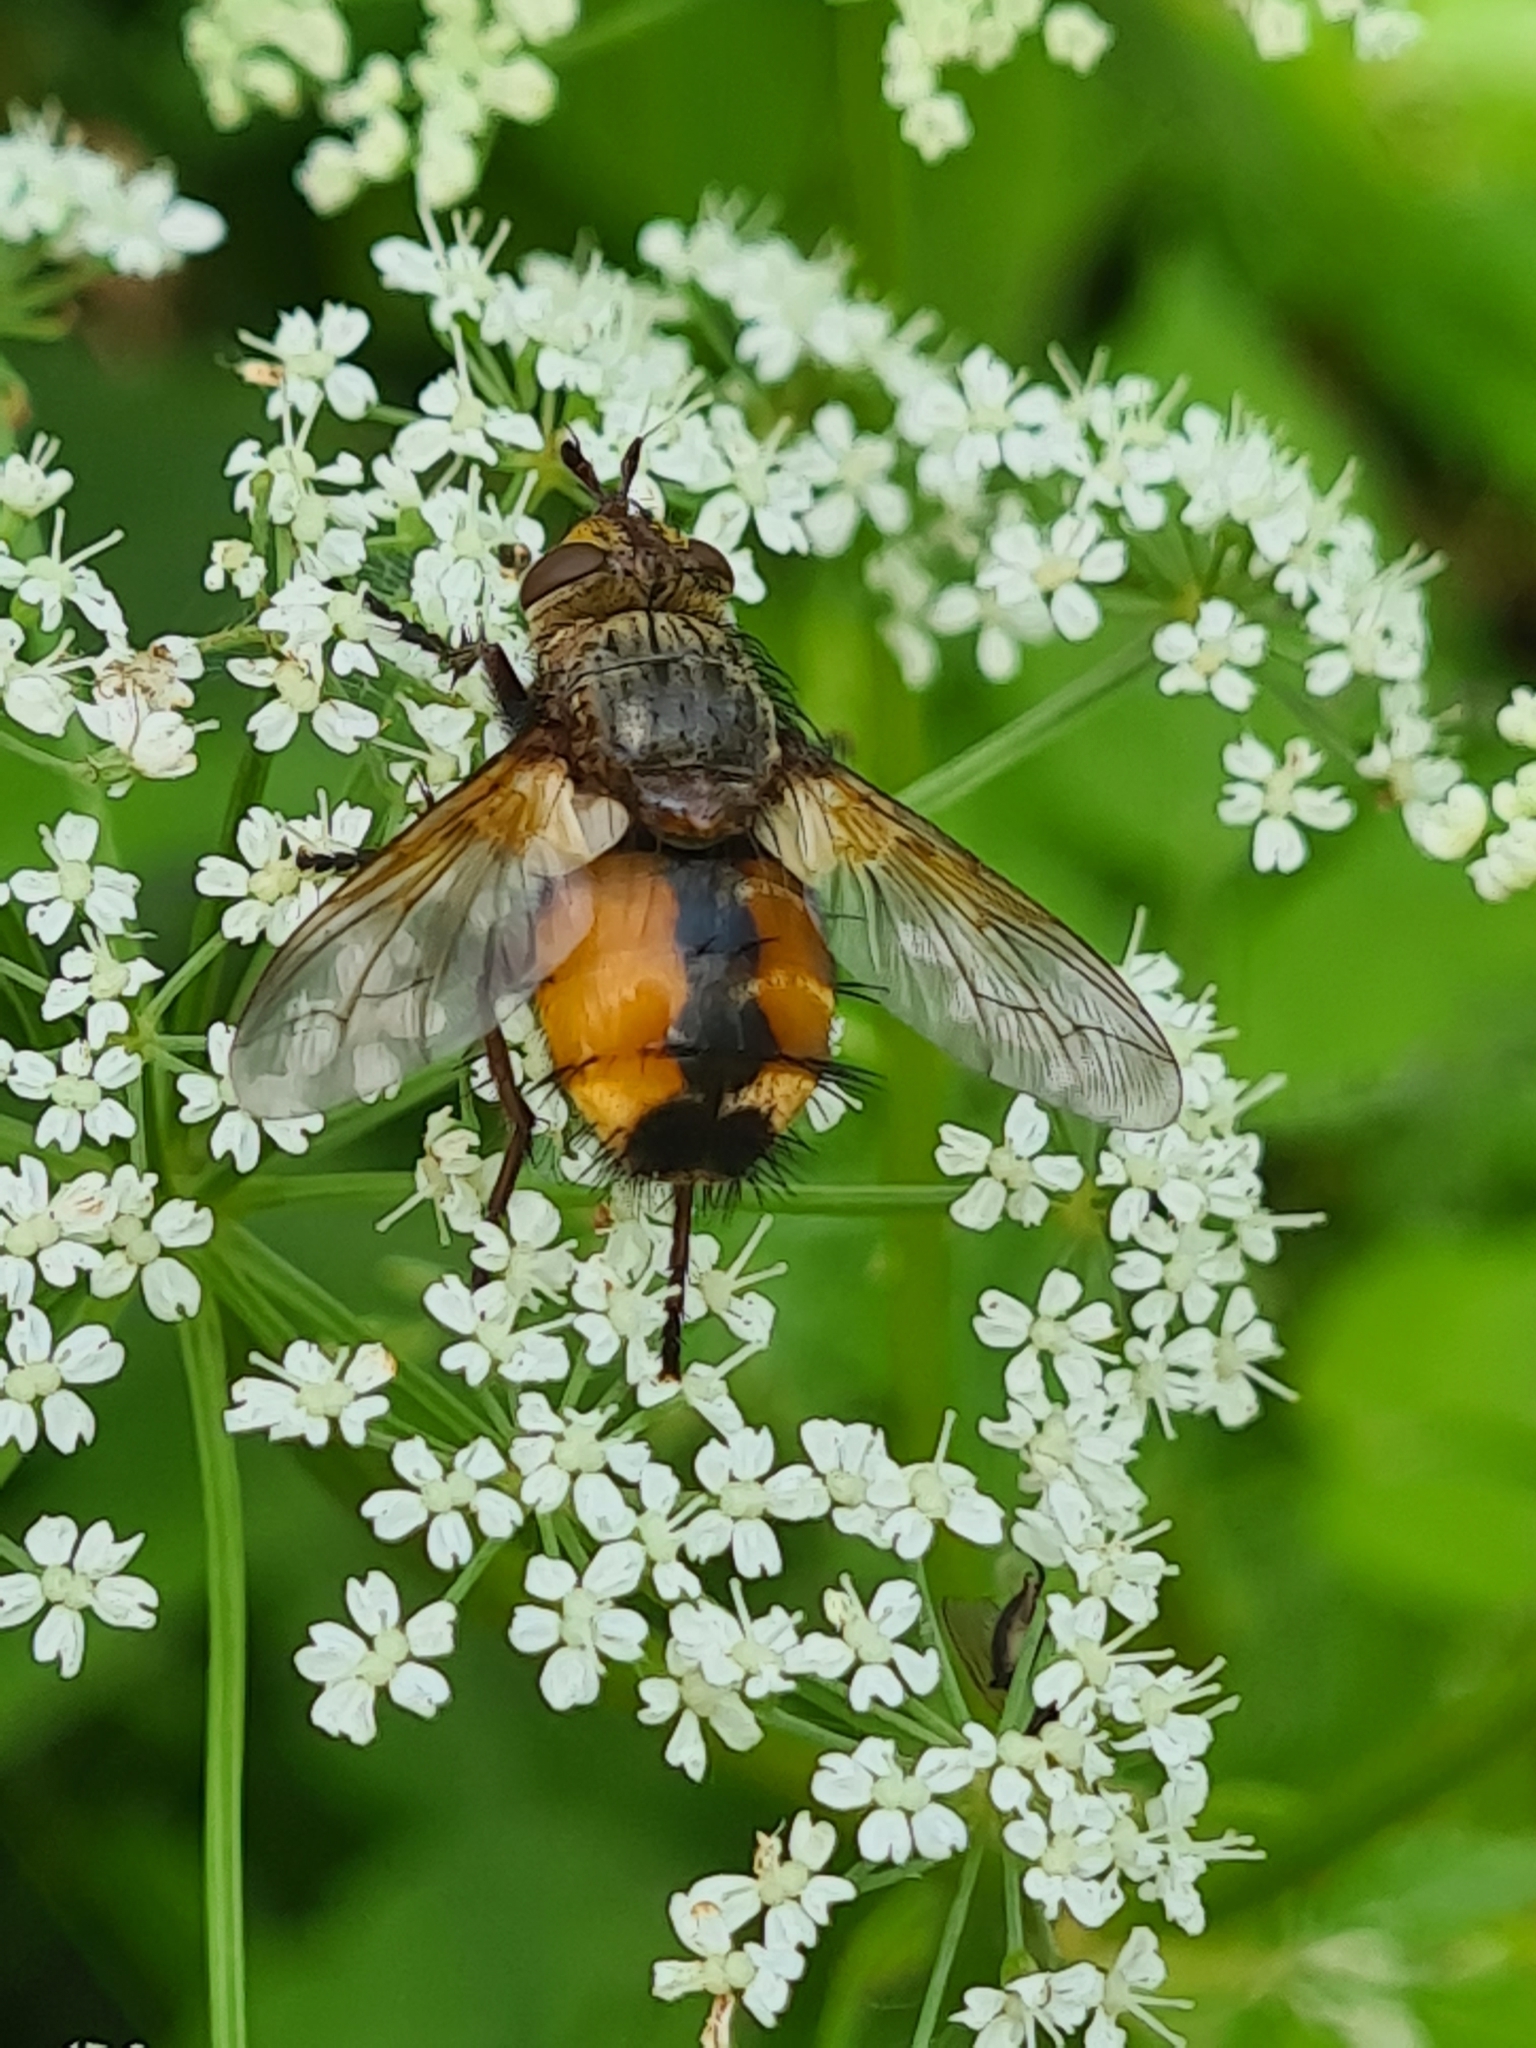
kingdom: Animalia
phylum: Arthropoda
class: Insecta
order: Diptera
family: Tachinidae
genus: Tachina
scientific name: Tachina fera
